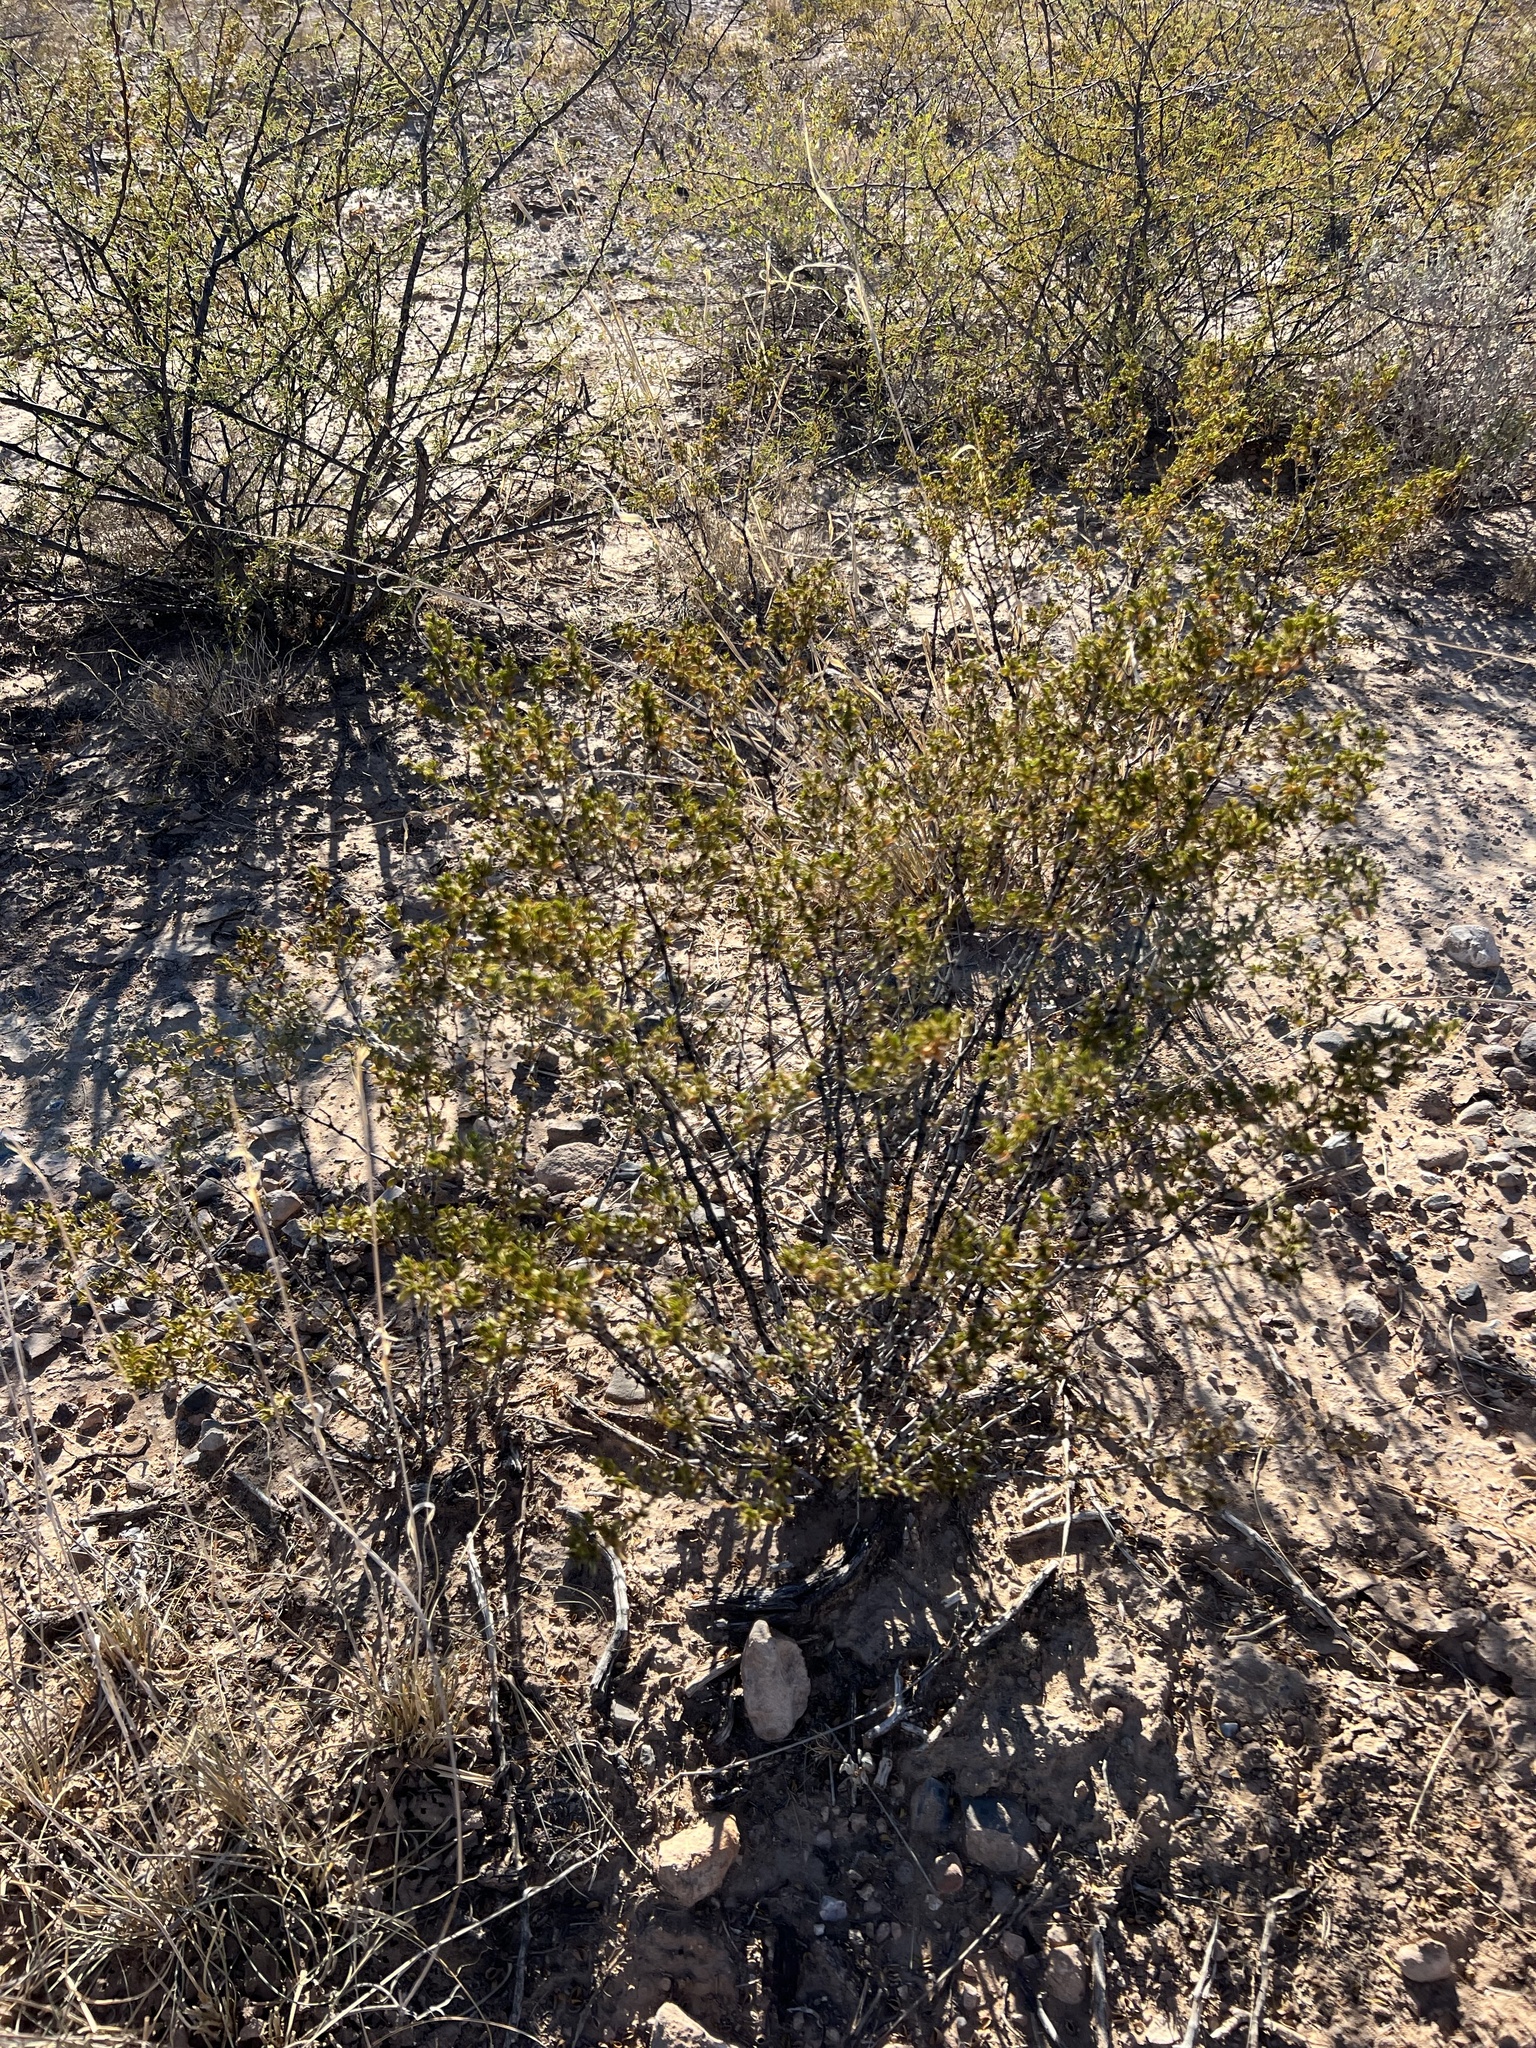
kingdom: Plantae
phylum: Tracheophyta
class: Magnoliopsida
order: Zygophyllales
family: Zygophyllaceae
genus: Larrea
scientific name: Larrea tridentata
